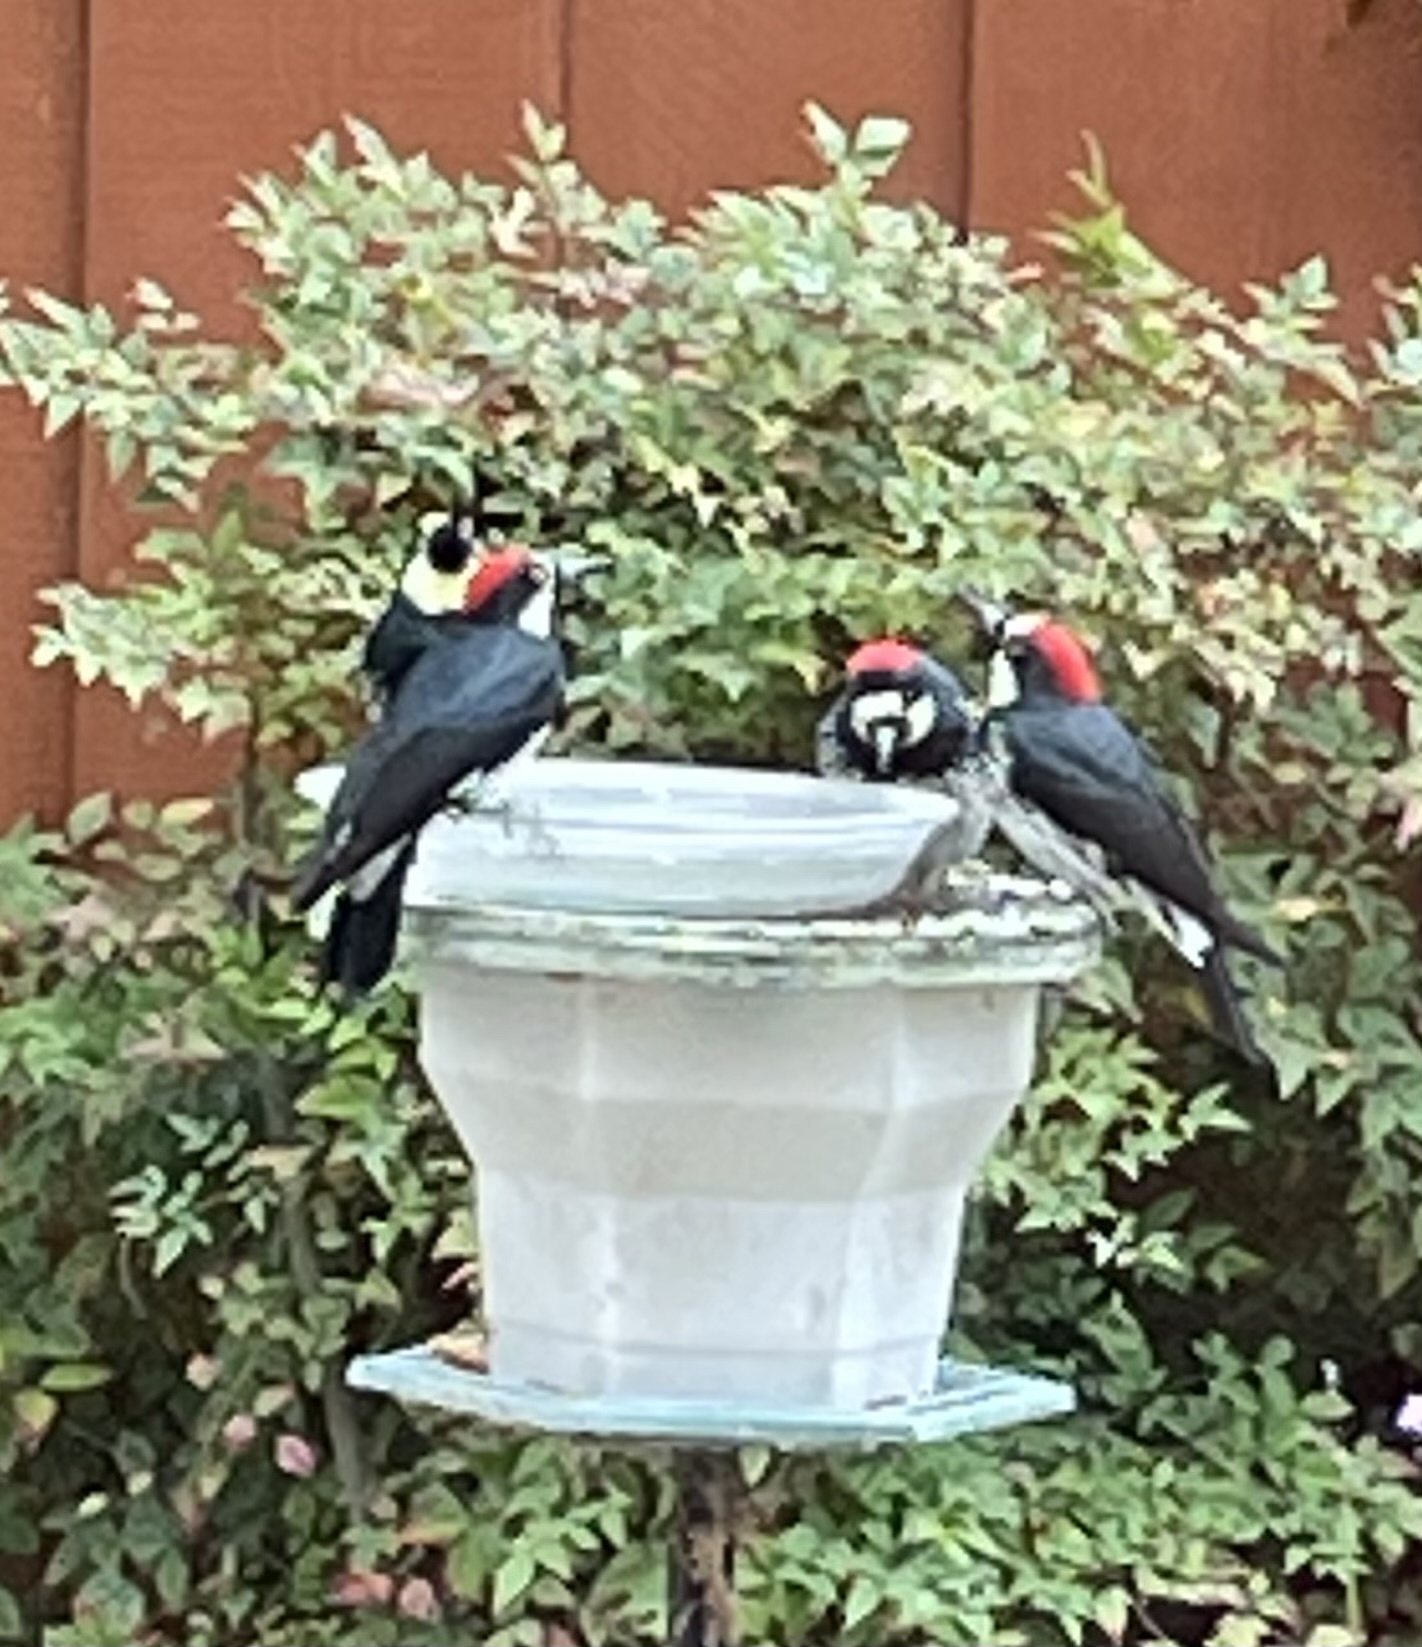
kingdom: Animalia
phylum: Chordata
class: Aves
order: Piciformes
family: Picidae
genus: Melanerpes
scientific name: Melanerpes formicivorus
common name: Acorn woodpecker
